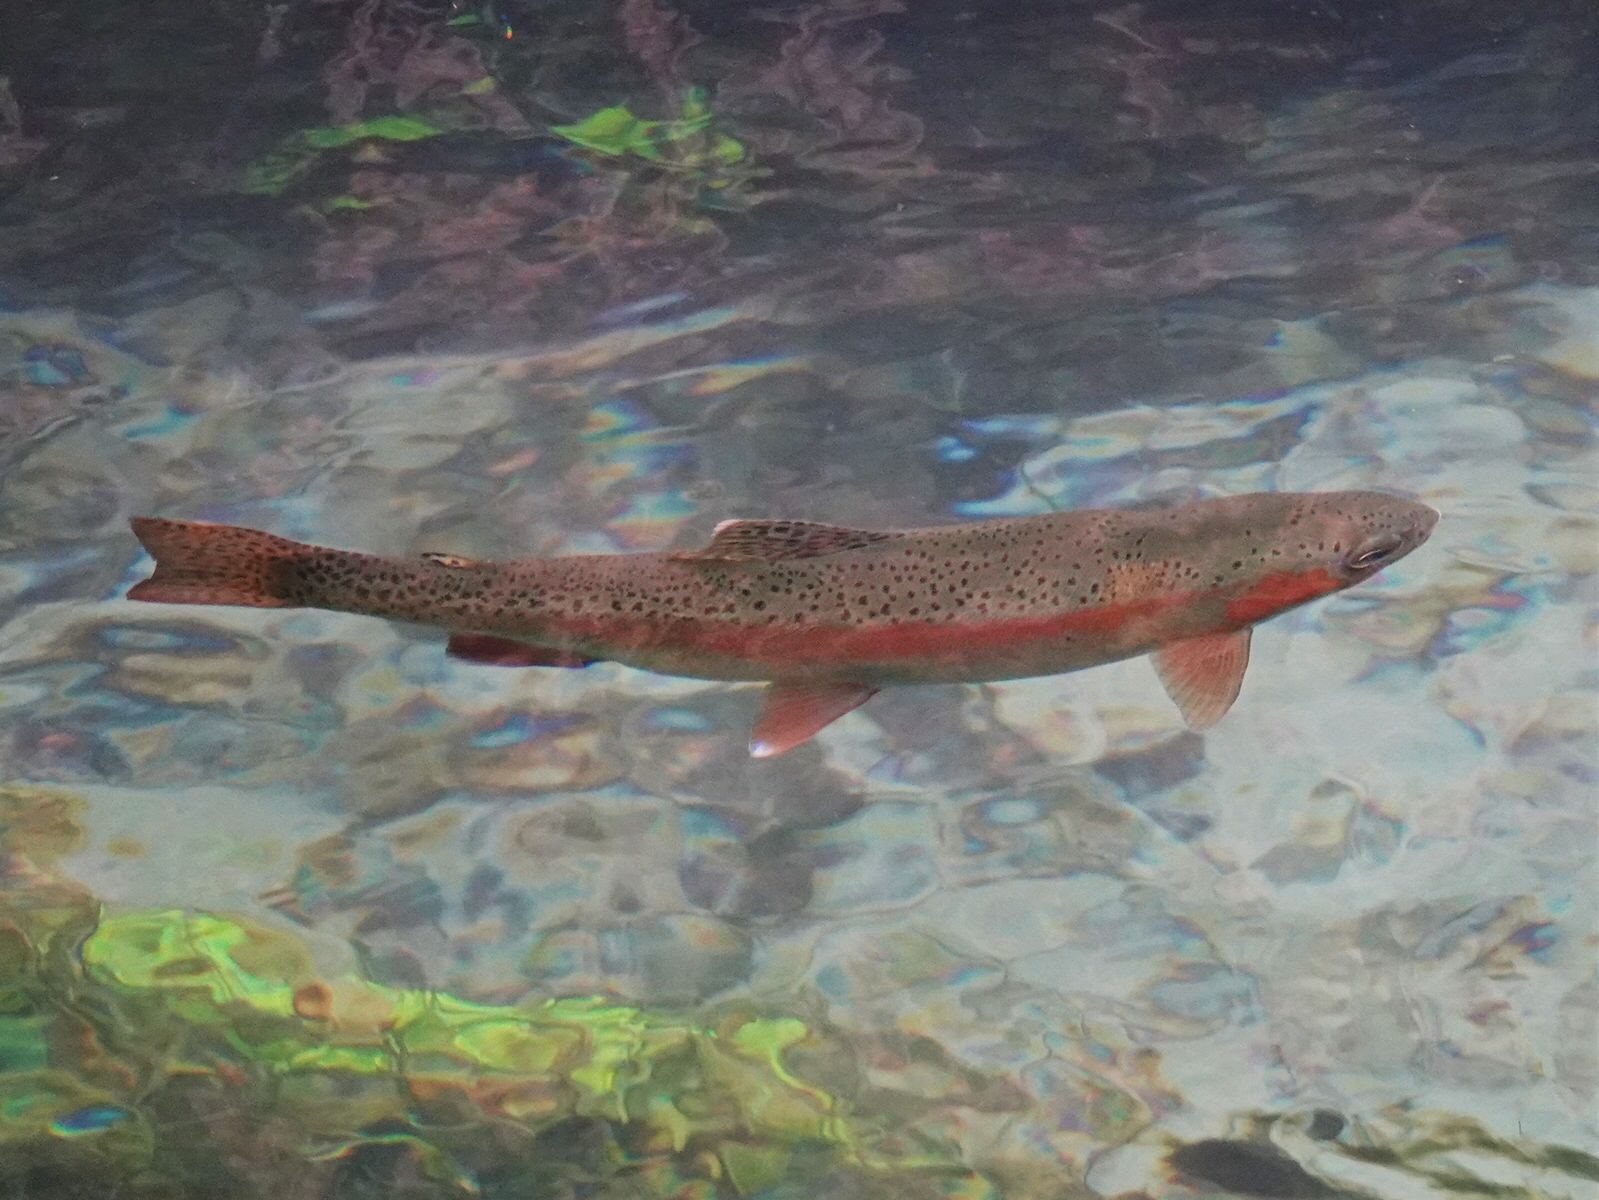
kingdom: Animalia
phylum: Chordata
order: Salmoniformes
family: Salmonidae
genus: Oncorhynchus
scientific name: Oncorhynchus mykiss
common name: Rainbow trout
